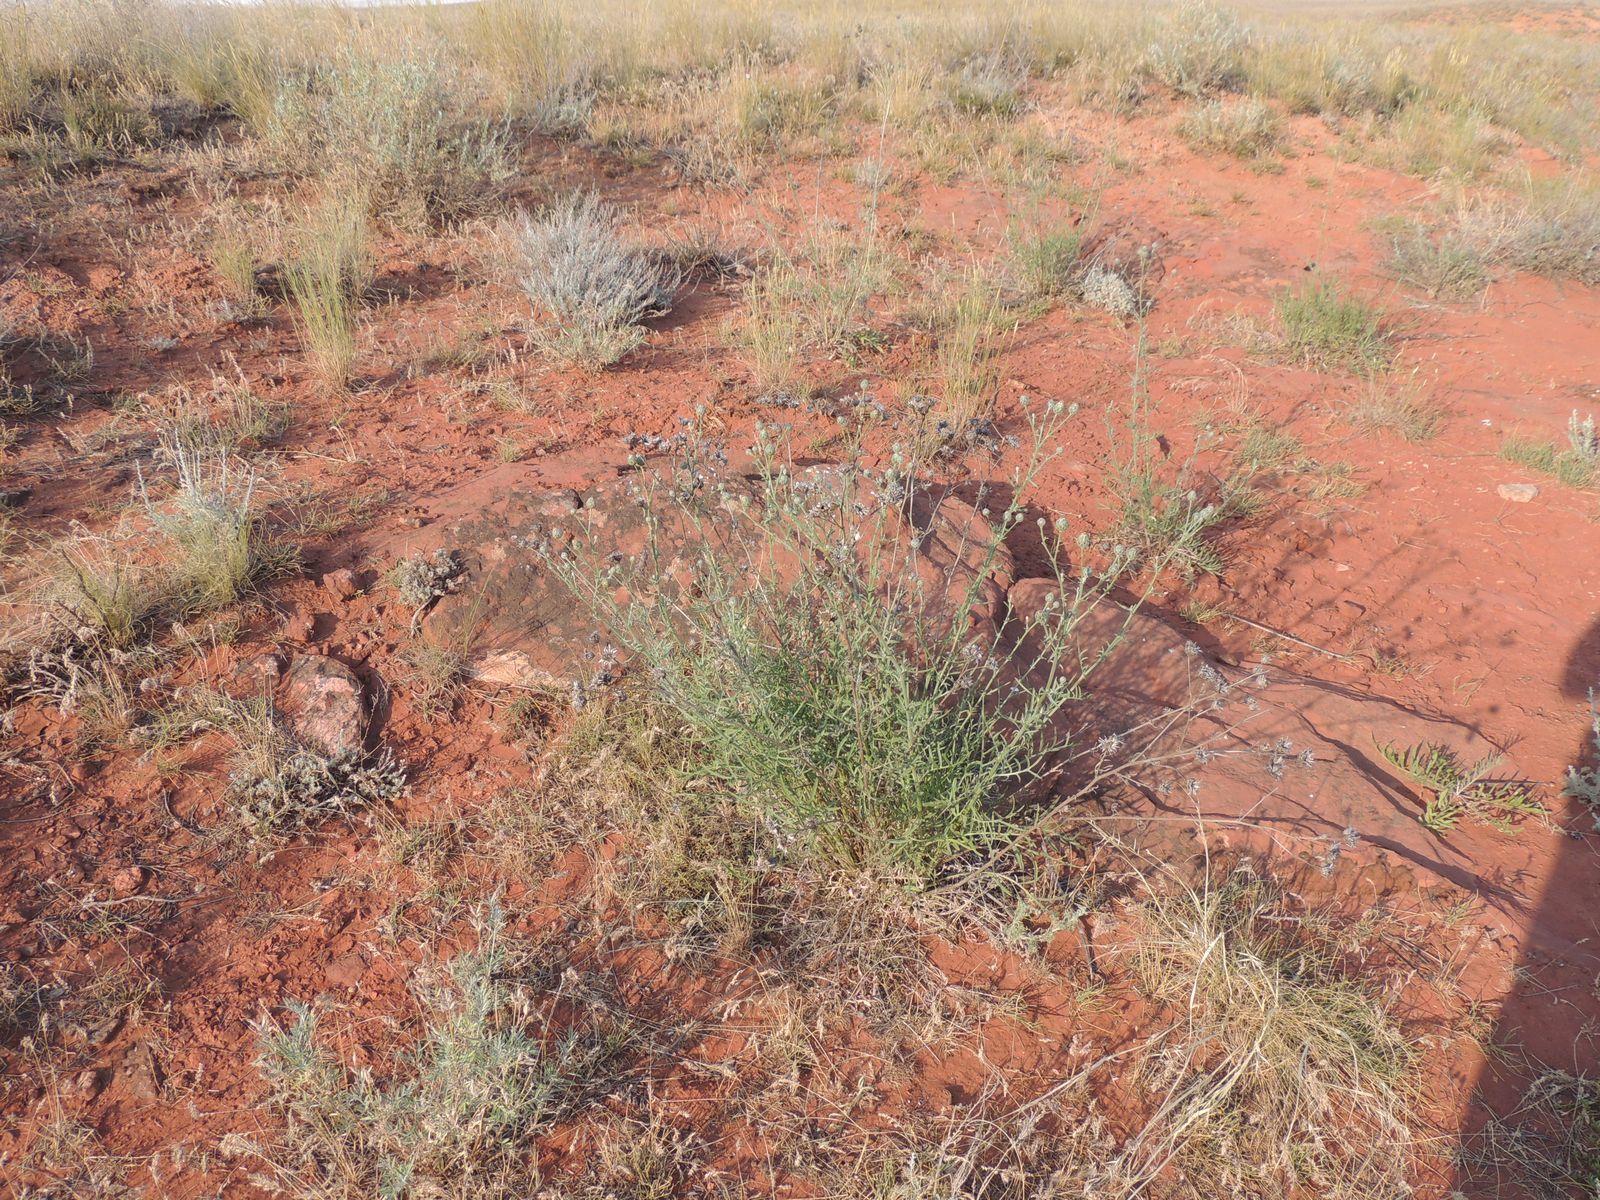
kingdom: Plantae
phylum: Tracheophyta
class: Magnoliopsida
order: Asterales
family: Asteraceae
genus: Centaurea
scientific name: Centaurea adpressa
